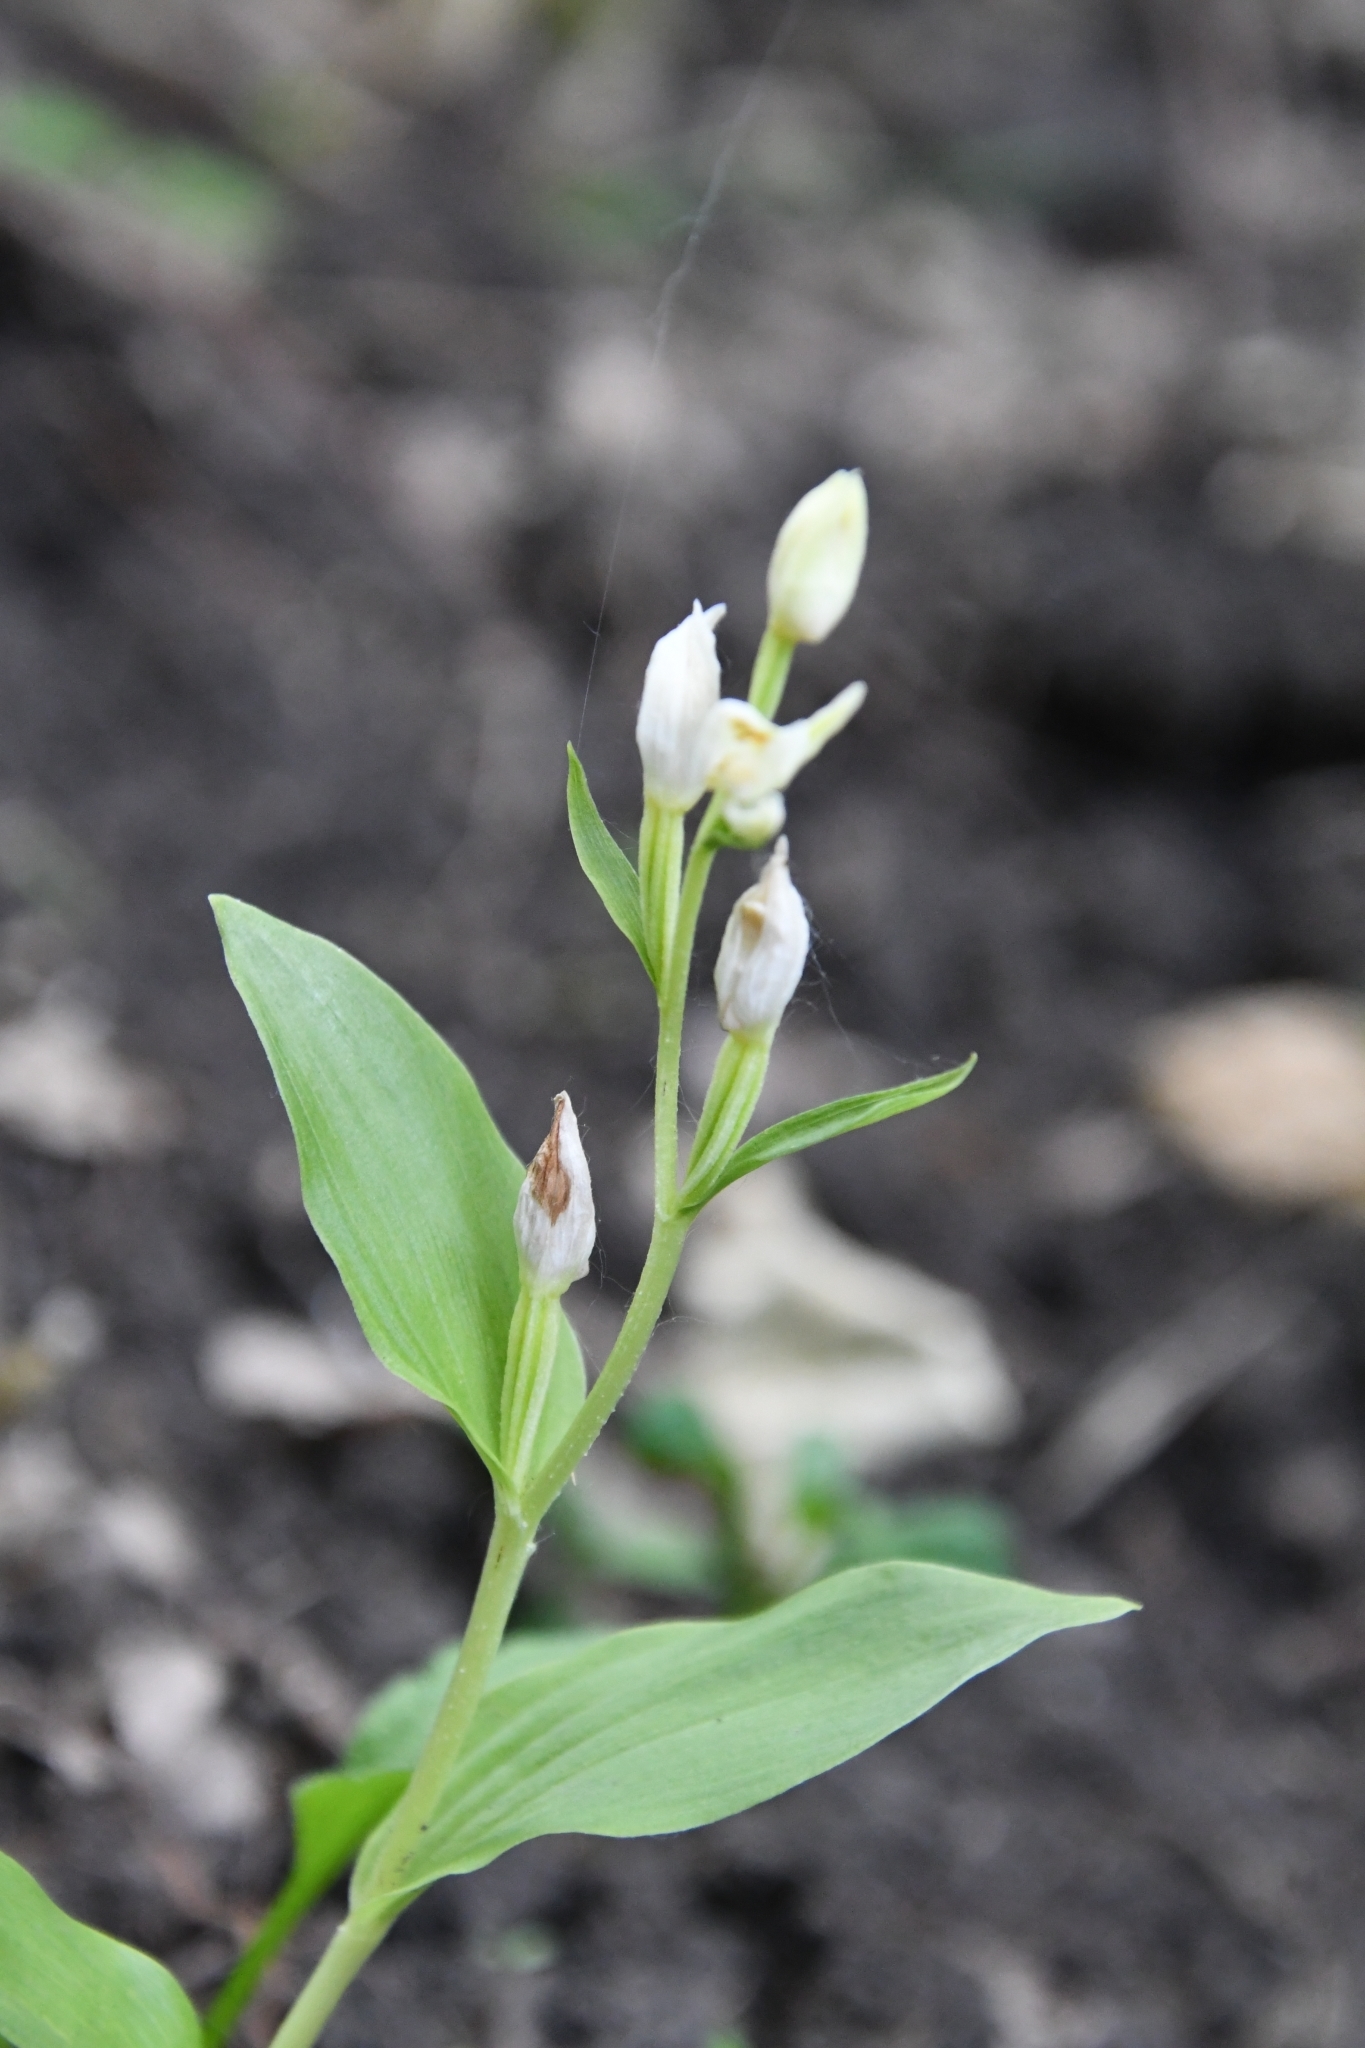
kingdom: Plantae
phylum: Tracheophyta
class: Liliopsida
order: Asparagales
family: Orchidaceae
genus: Cephalanthera
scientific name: Cephalanthera damasonium
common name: White helleborine
